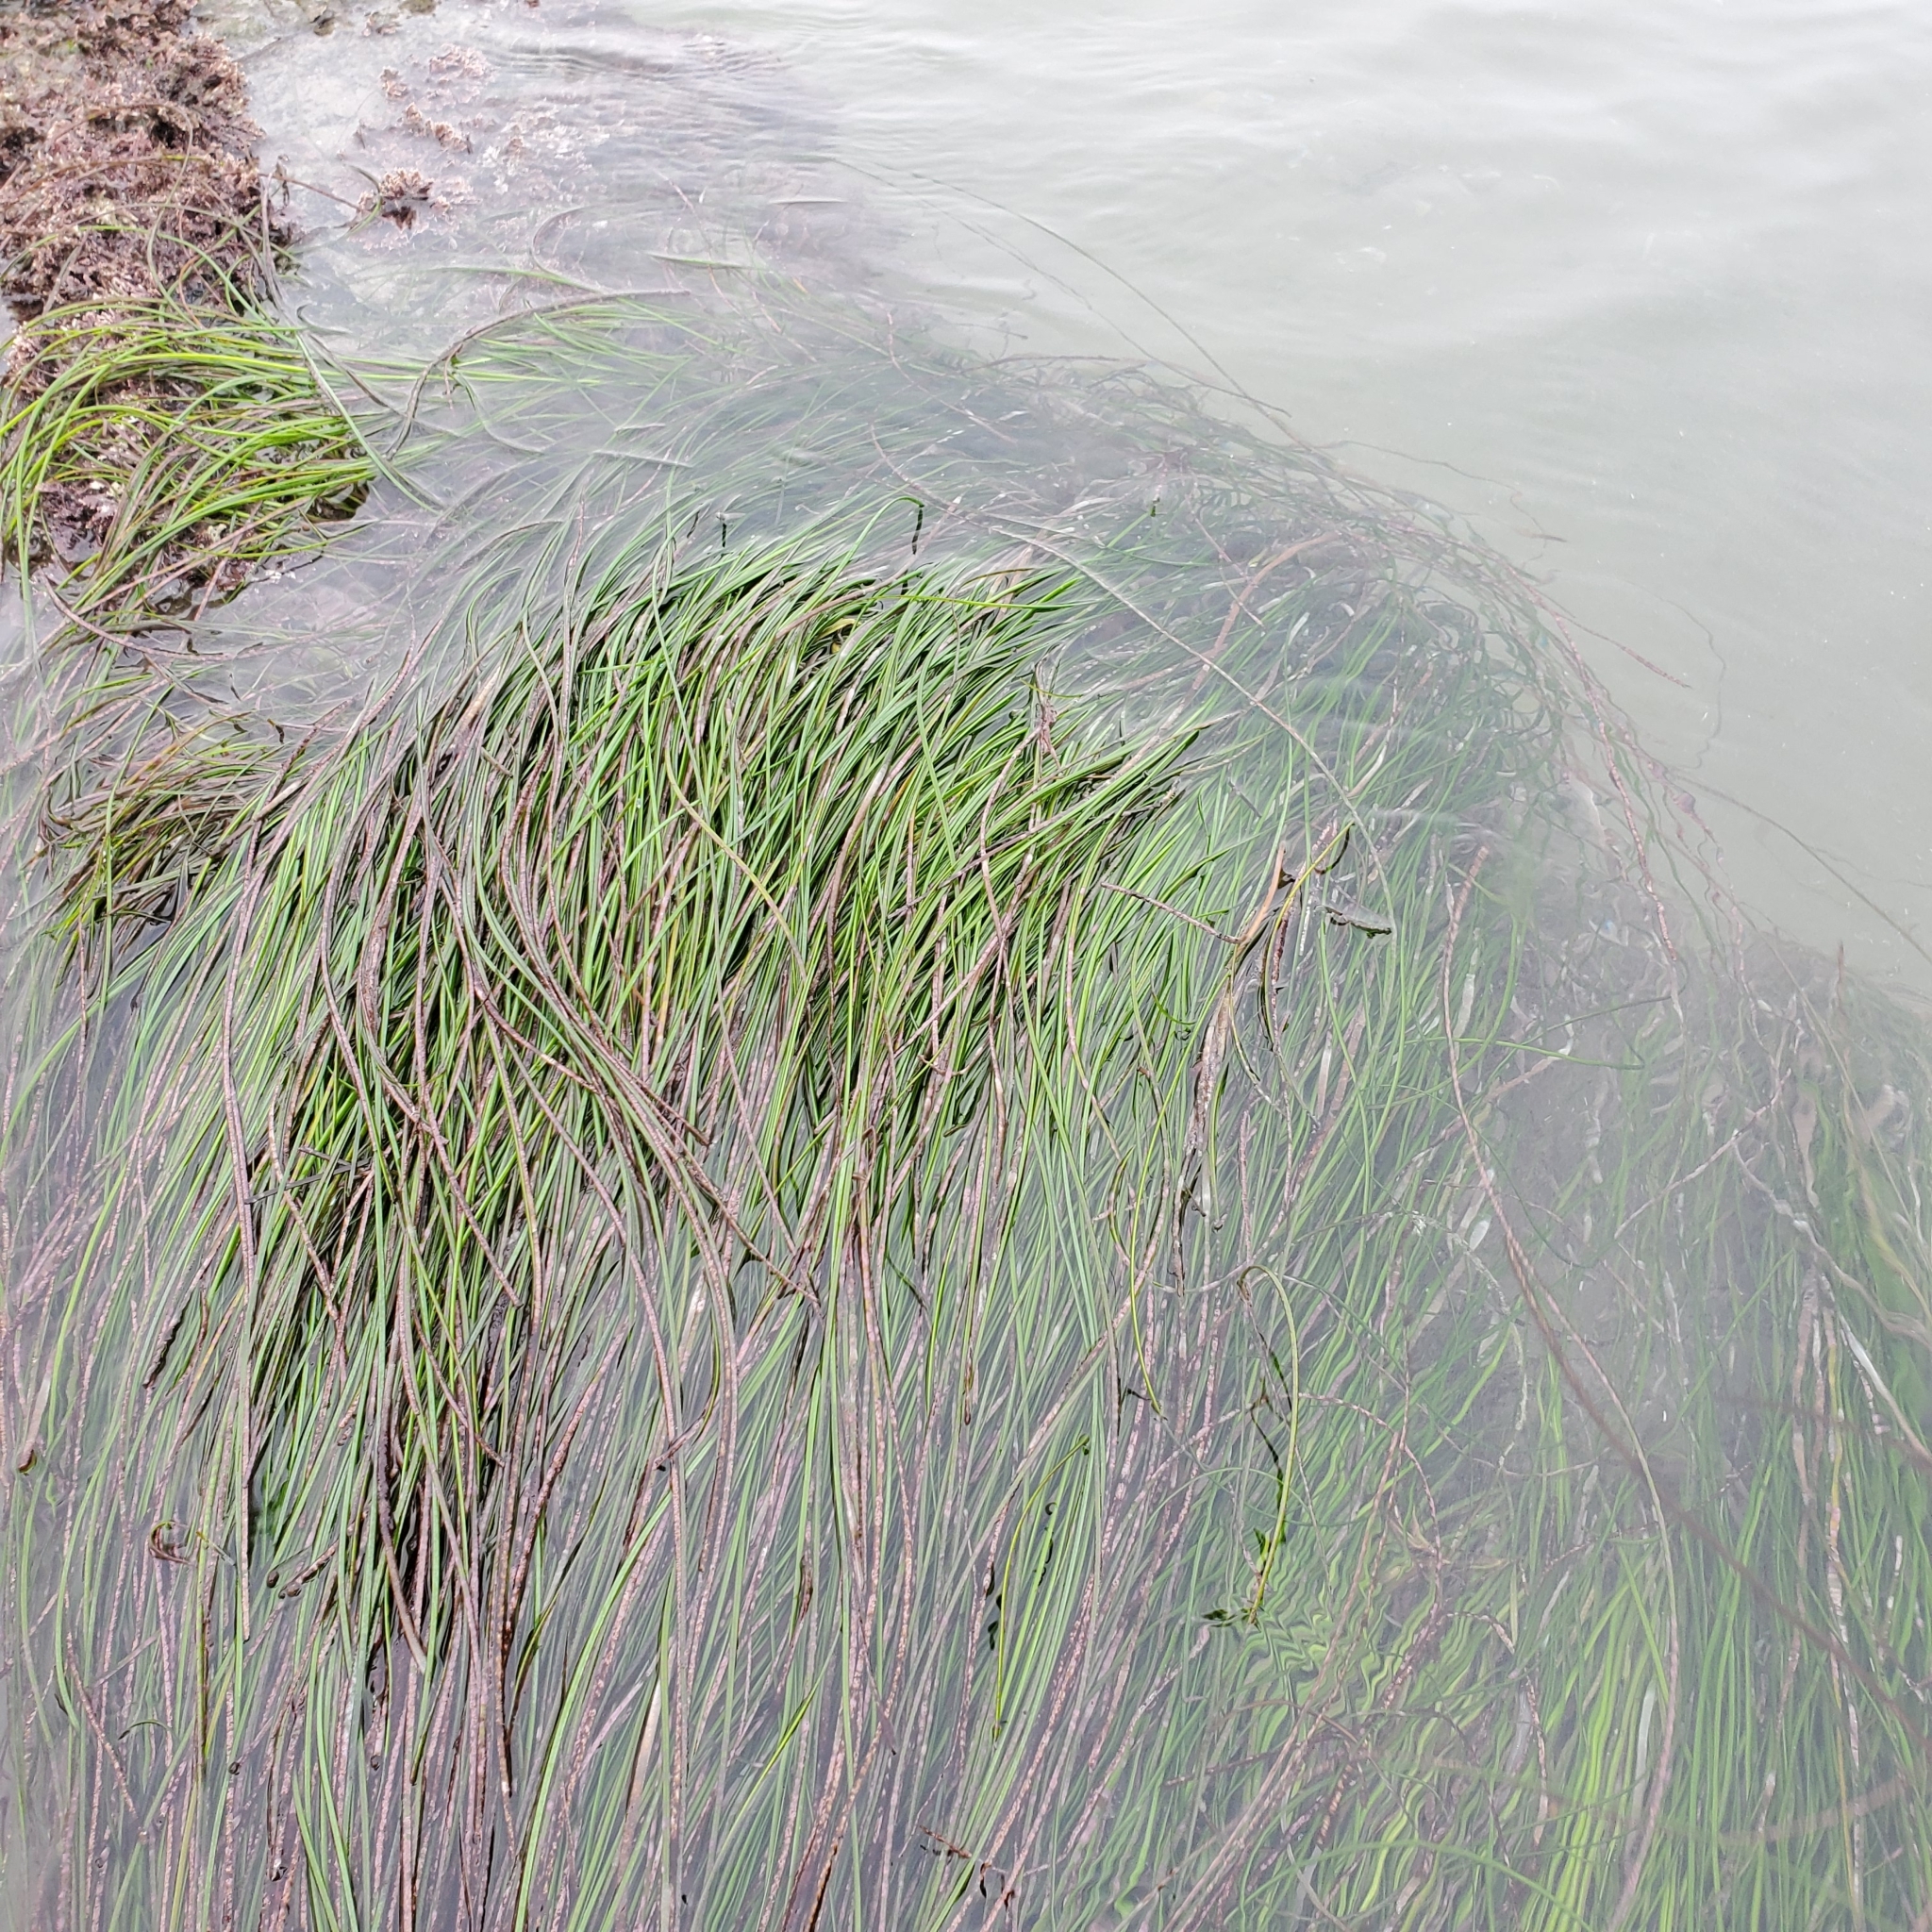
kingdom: Plantae
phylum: Tracheophyta
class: Liliopsida
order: Alismatales
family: Zosteraceae
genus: Phyllospadix
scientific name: Phyllospadix torreyi
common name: Surfgrass
